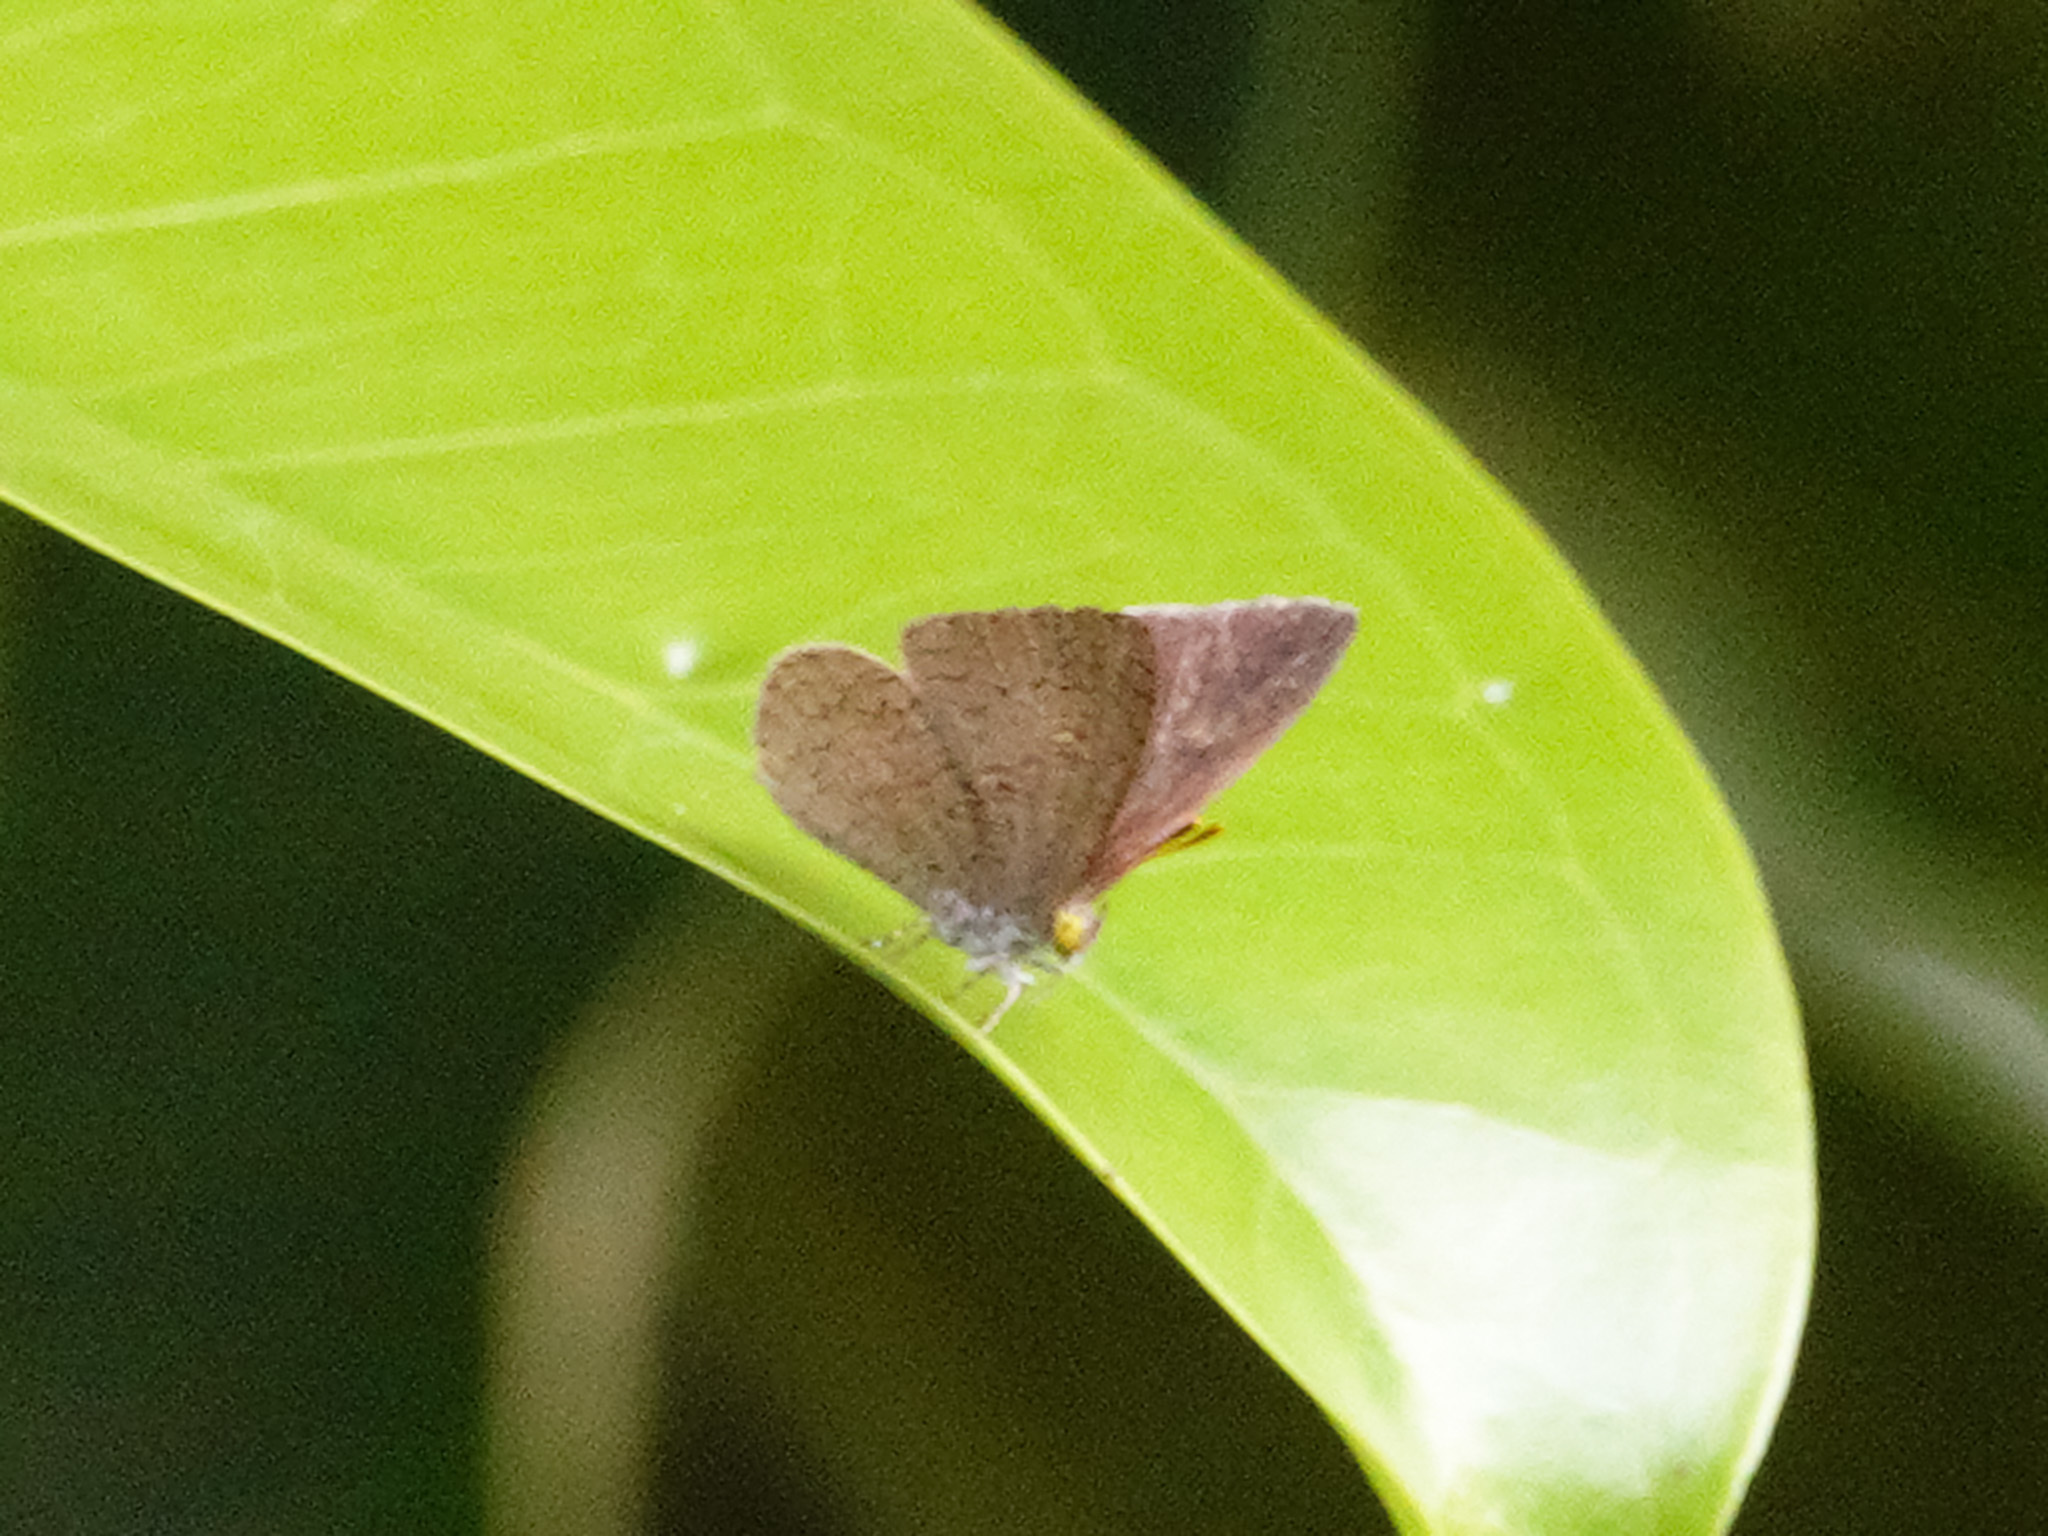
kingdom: Animalia
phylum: Arthropoda
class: Insecta
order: Lepidoptera
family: Lycaenidae
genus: Spalgis
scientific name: Spalgis epius
